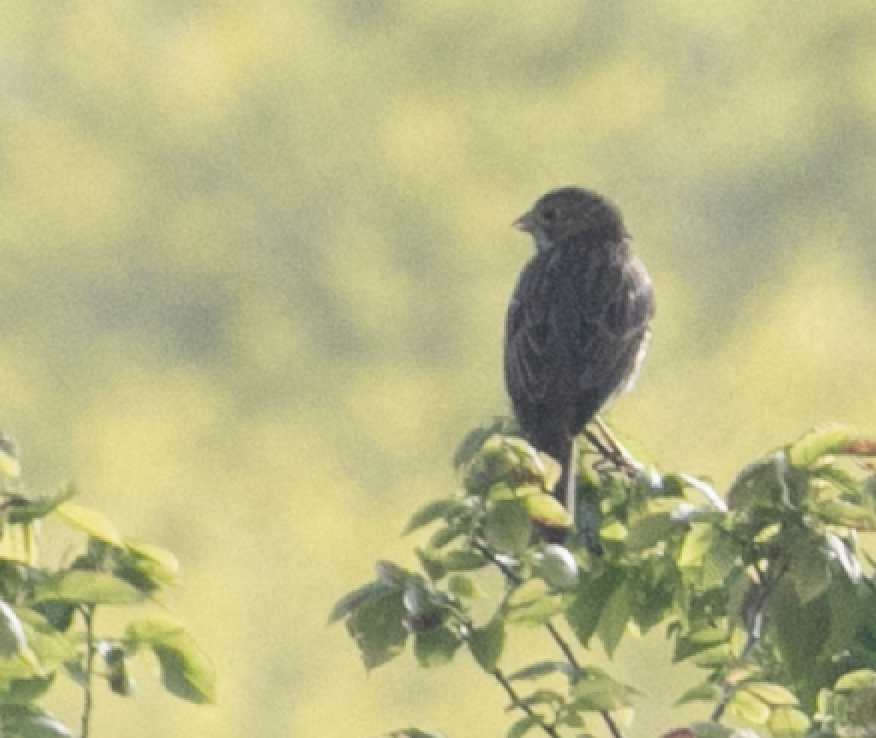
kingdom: Animalia
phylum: Chordata
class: Aves
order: Passeriformes
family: Emberizidae
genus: Emberiza
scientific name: Emberiza calandra
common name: Corn bunting
